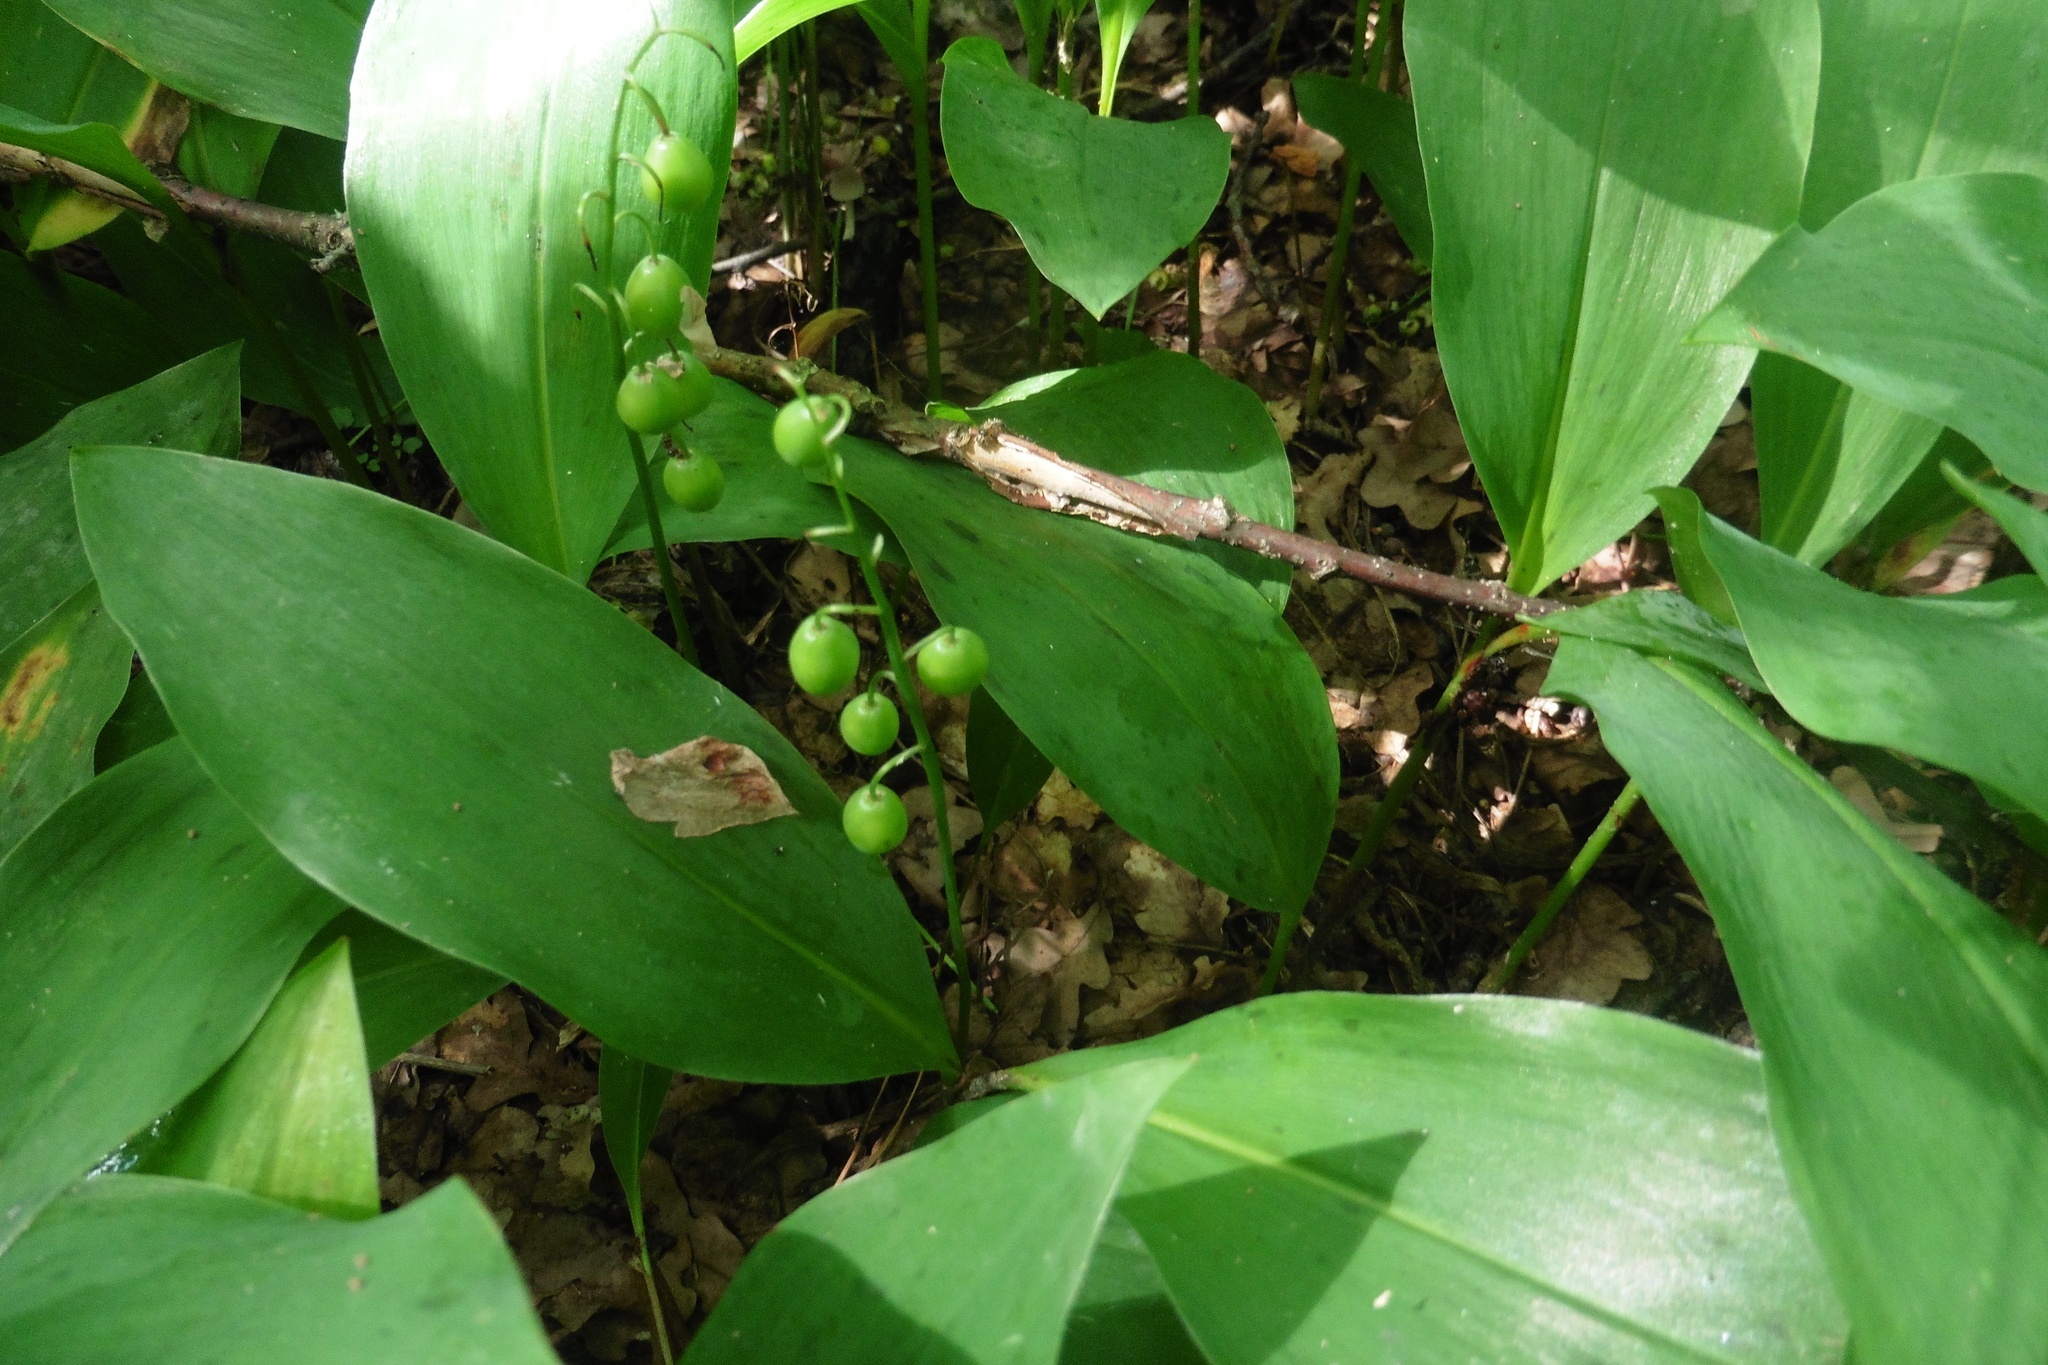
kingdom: Plantae
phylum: Tracheophyta
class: Liliopsida
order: Asparagales
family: Asparagaceae
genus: Convallaria
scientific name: Convallaria majalis
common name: Lily-of-the-valley
